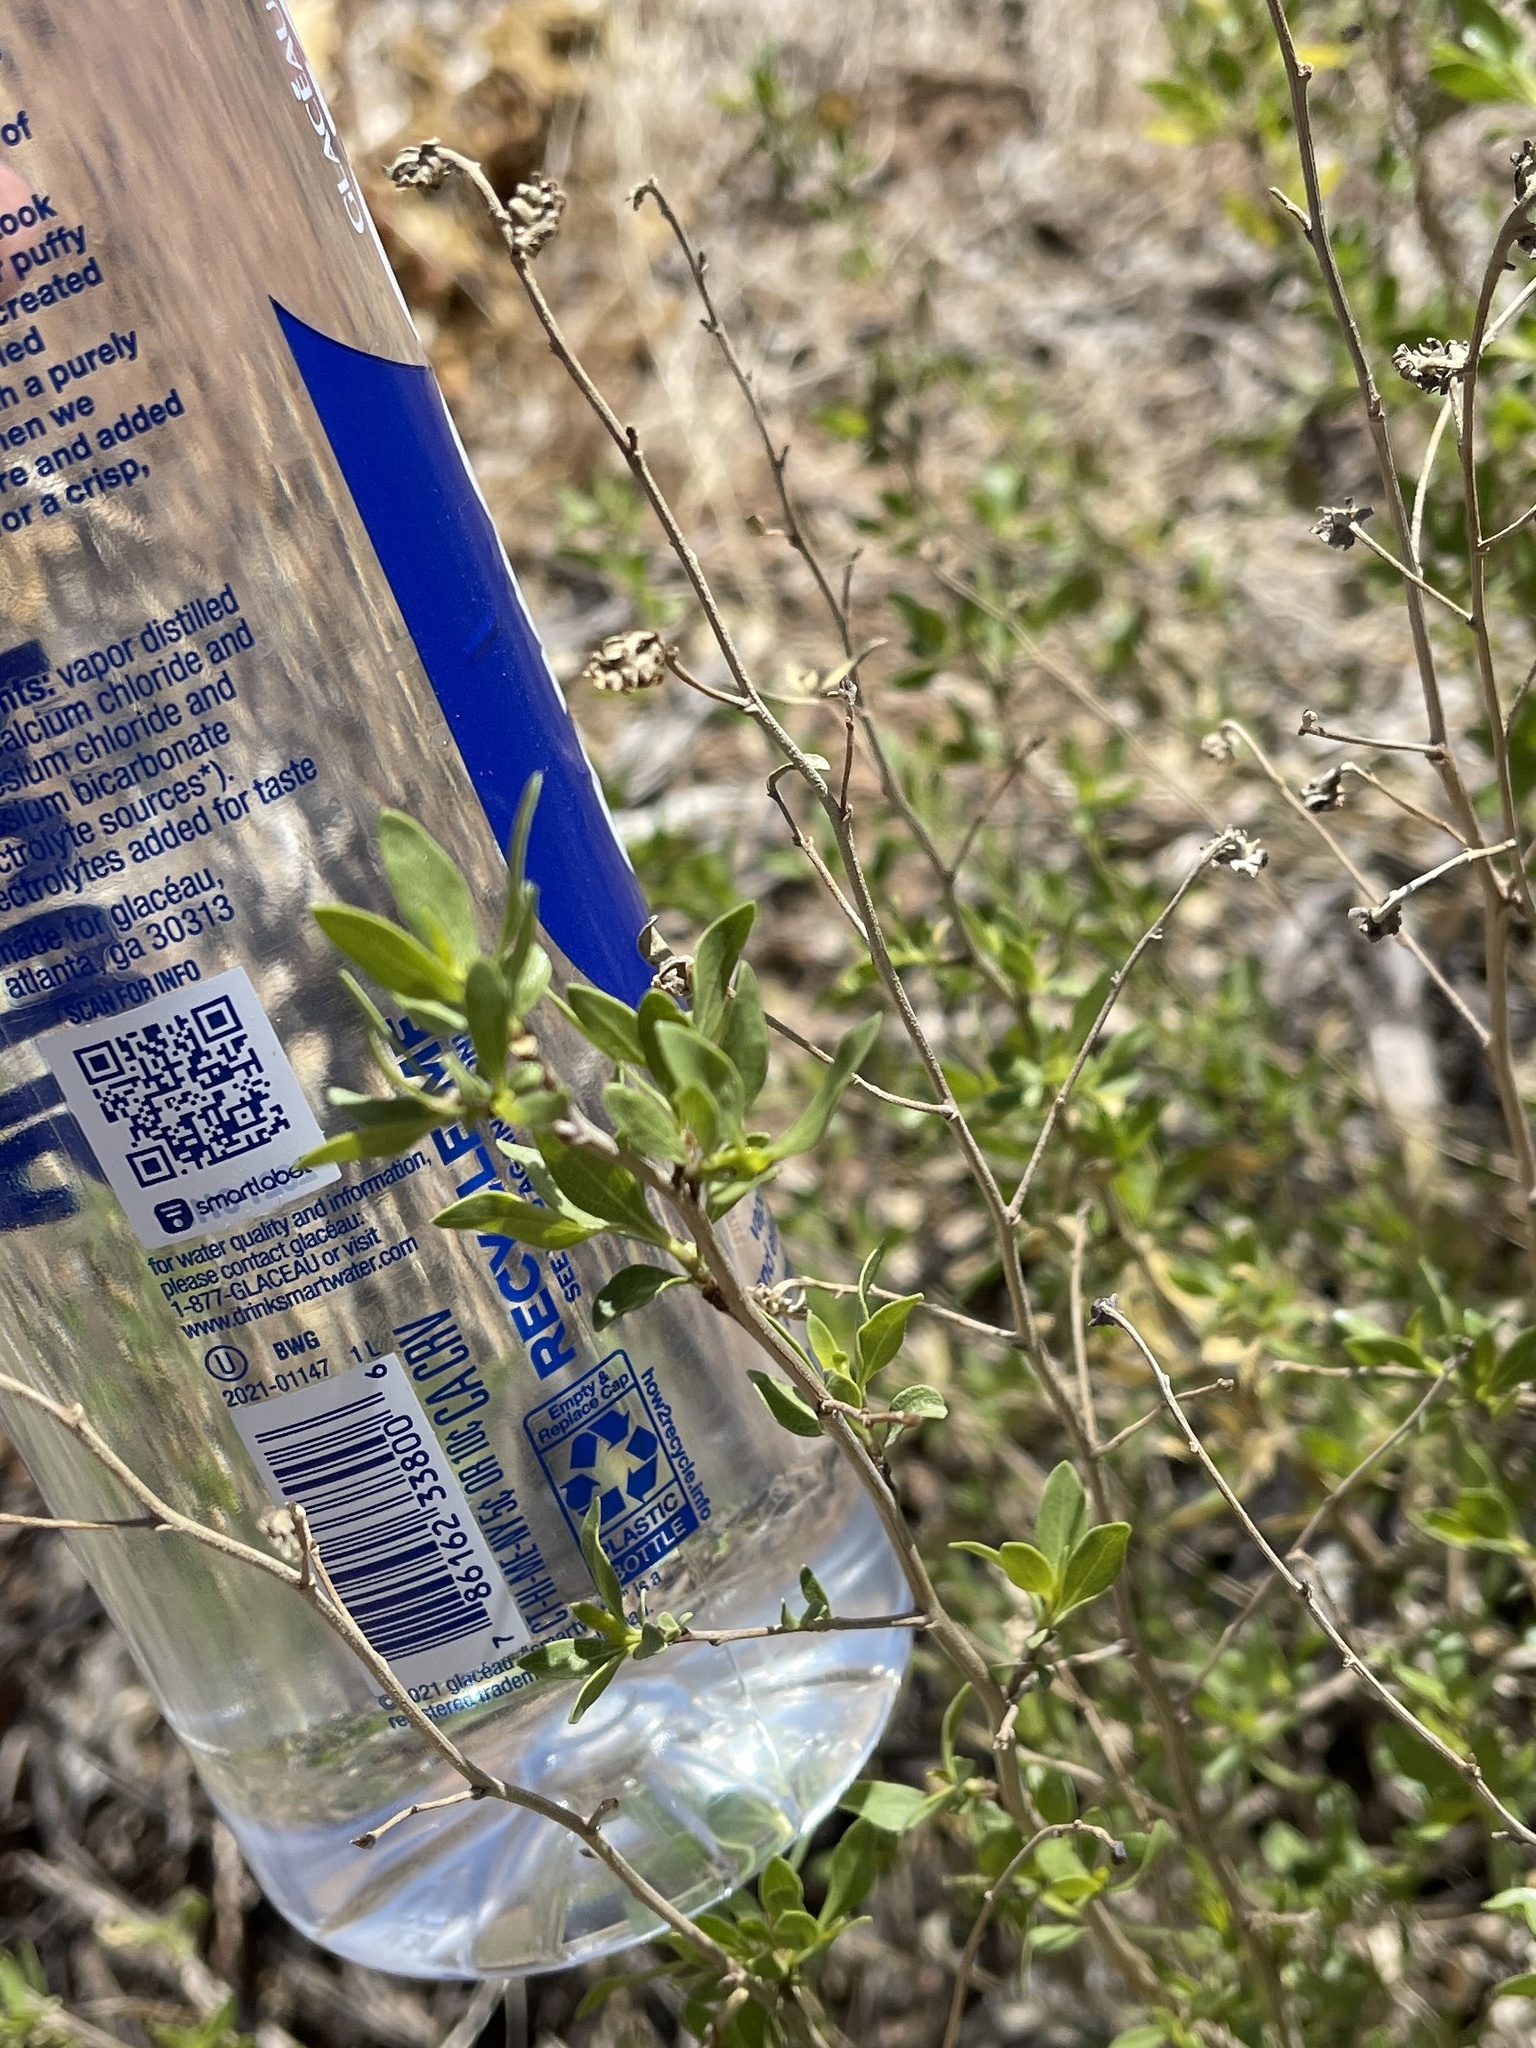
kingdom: Plantae
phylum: Tracheophyta
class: Magnoliopsida
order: Asterales
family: Asteraceae
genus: Flourensia
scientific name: Flourensia cernua
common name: Varnishbush
